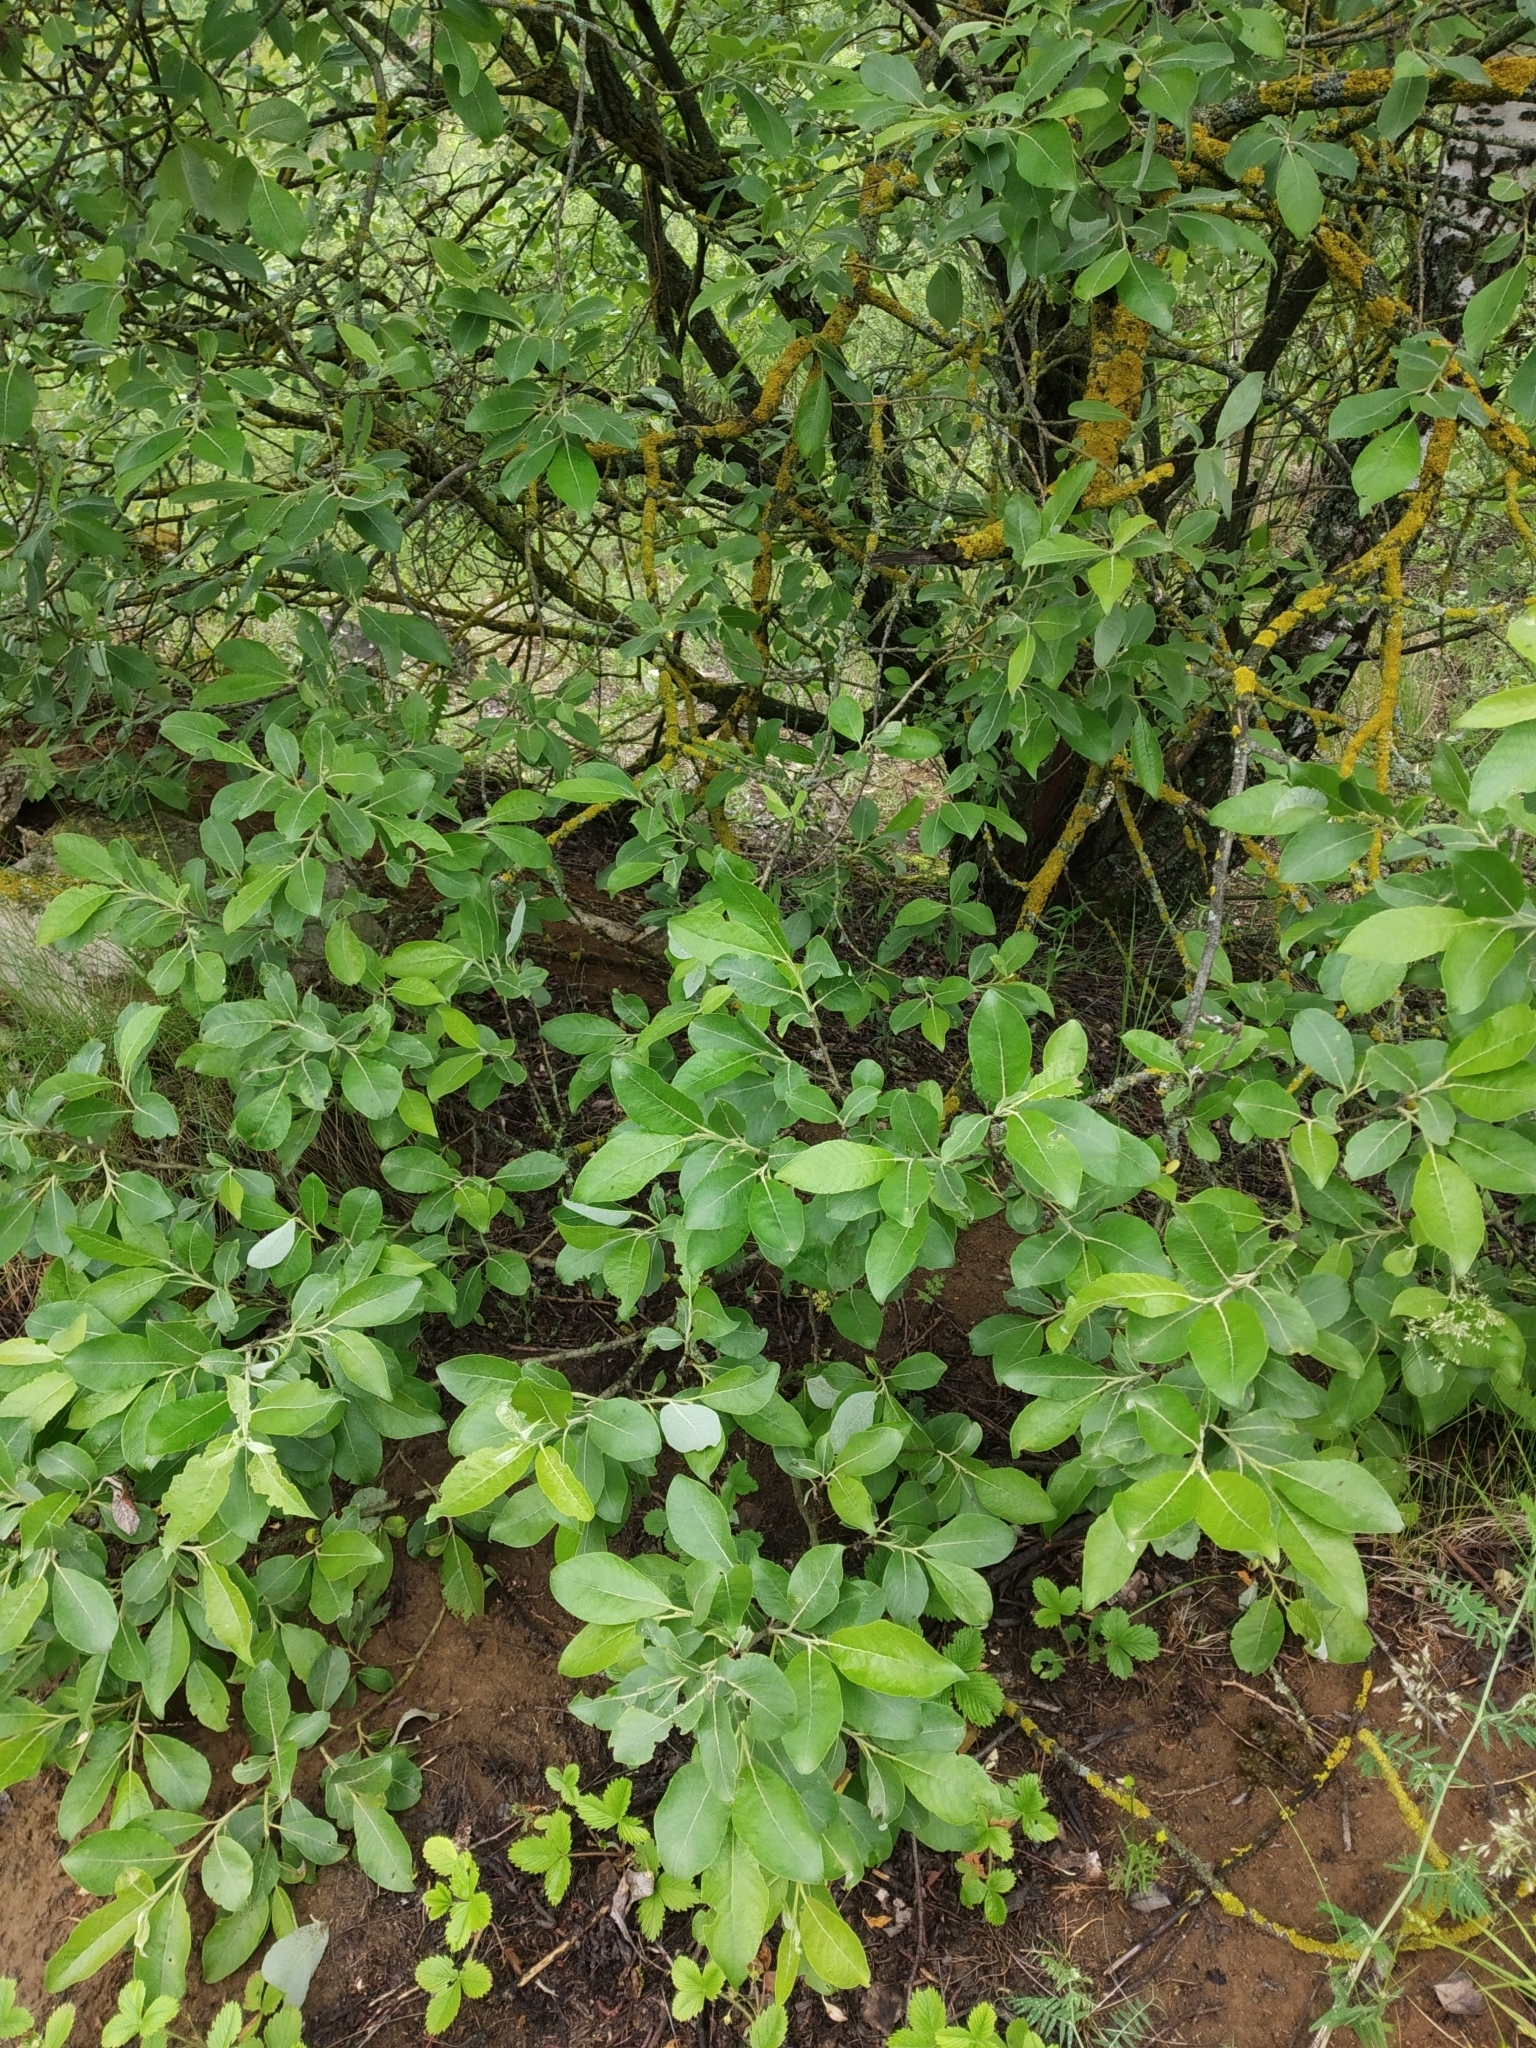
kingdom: Plantae
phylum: Tracheophyta
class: Magnoliopsida
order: Malpighiales
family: Salicaceae
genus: Salix
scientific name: Salix caprea
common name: Goat willow
